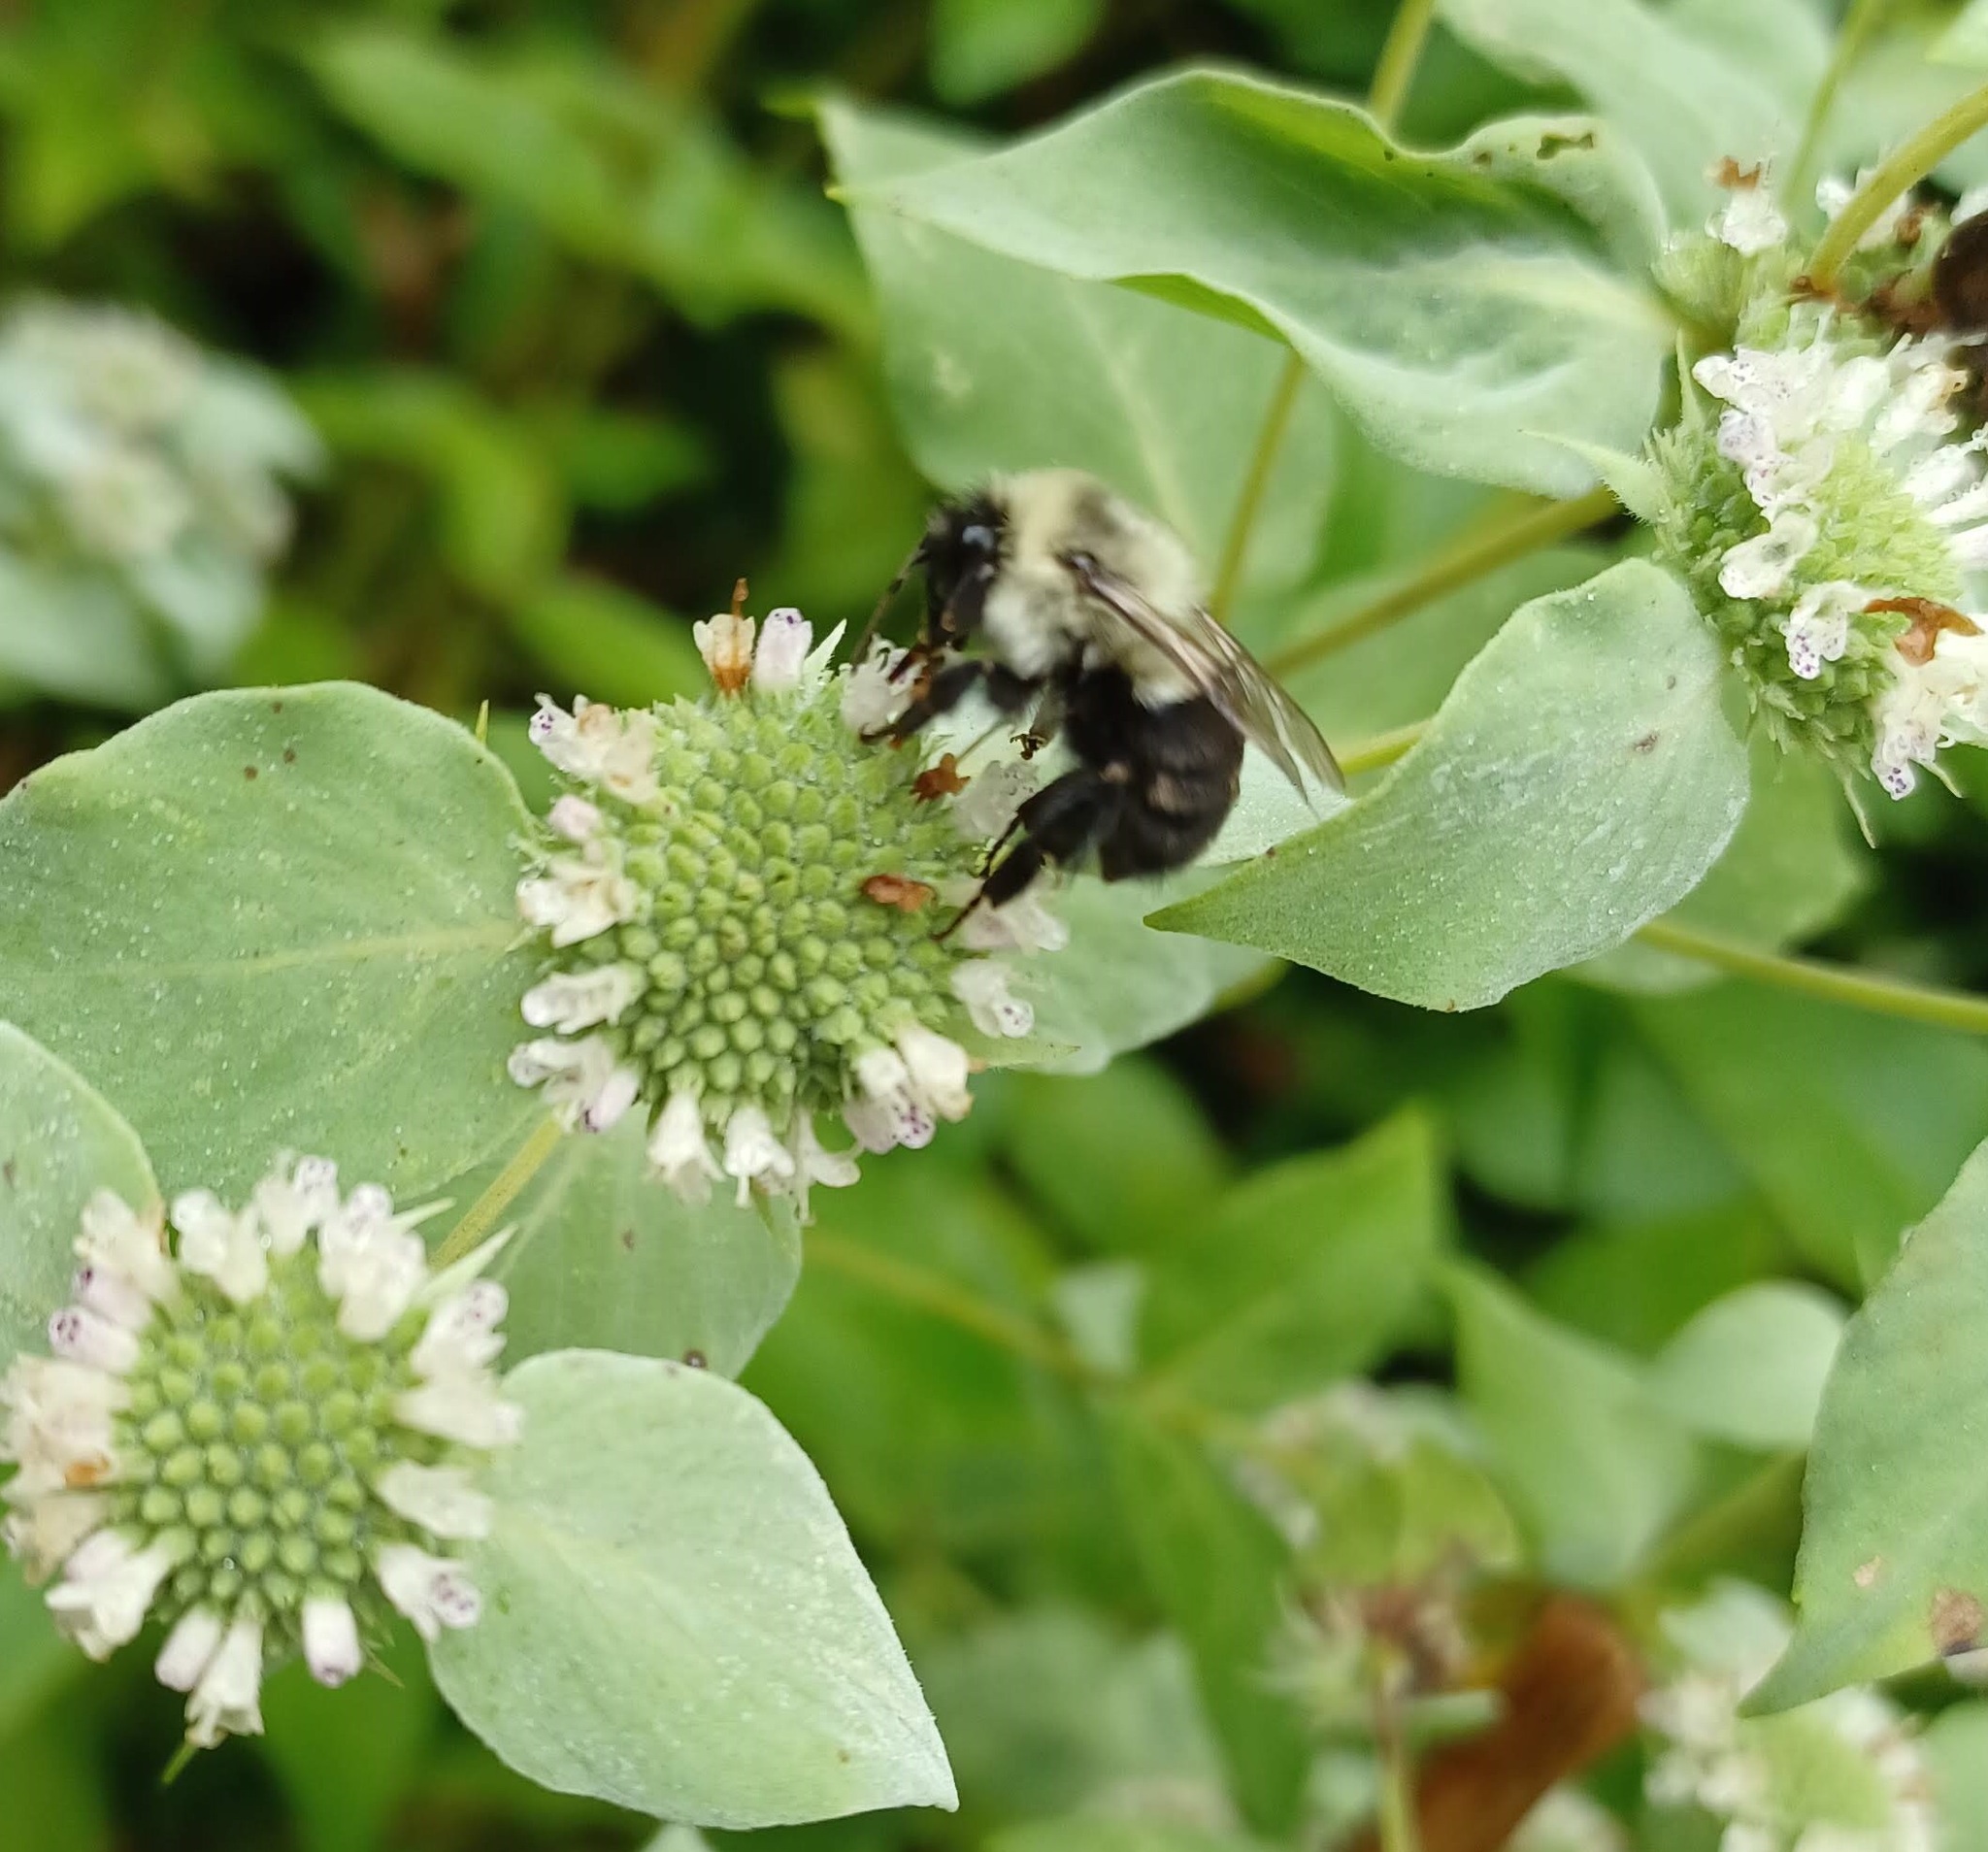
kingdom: Animalia
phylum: Arthropoda
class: Insecta
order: Hymenoptera
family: Apidae
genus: Bombus
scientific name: Bombus impatiens
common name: Common eastern bumble bee
